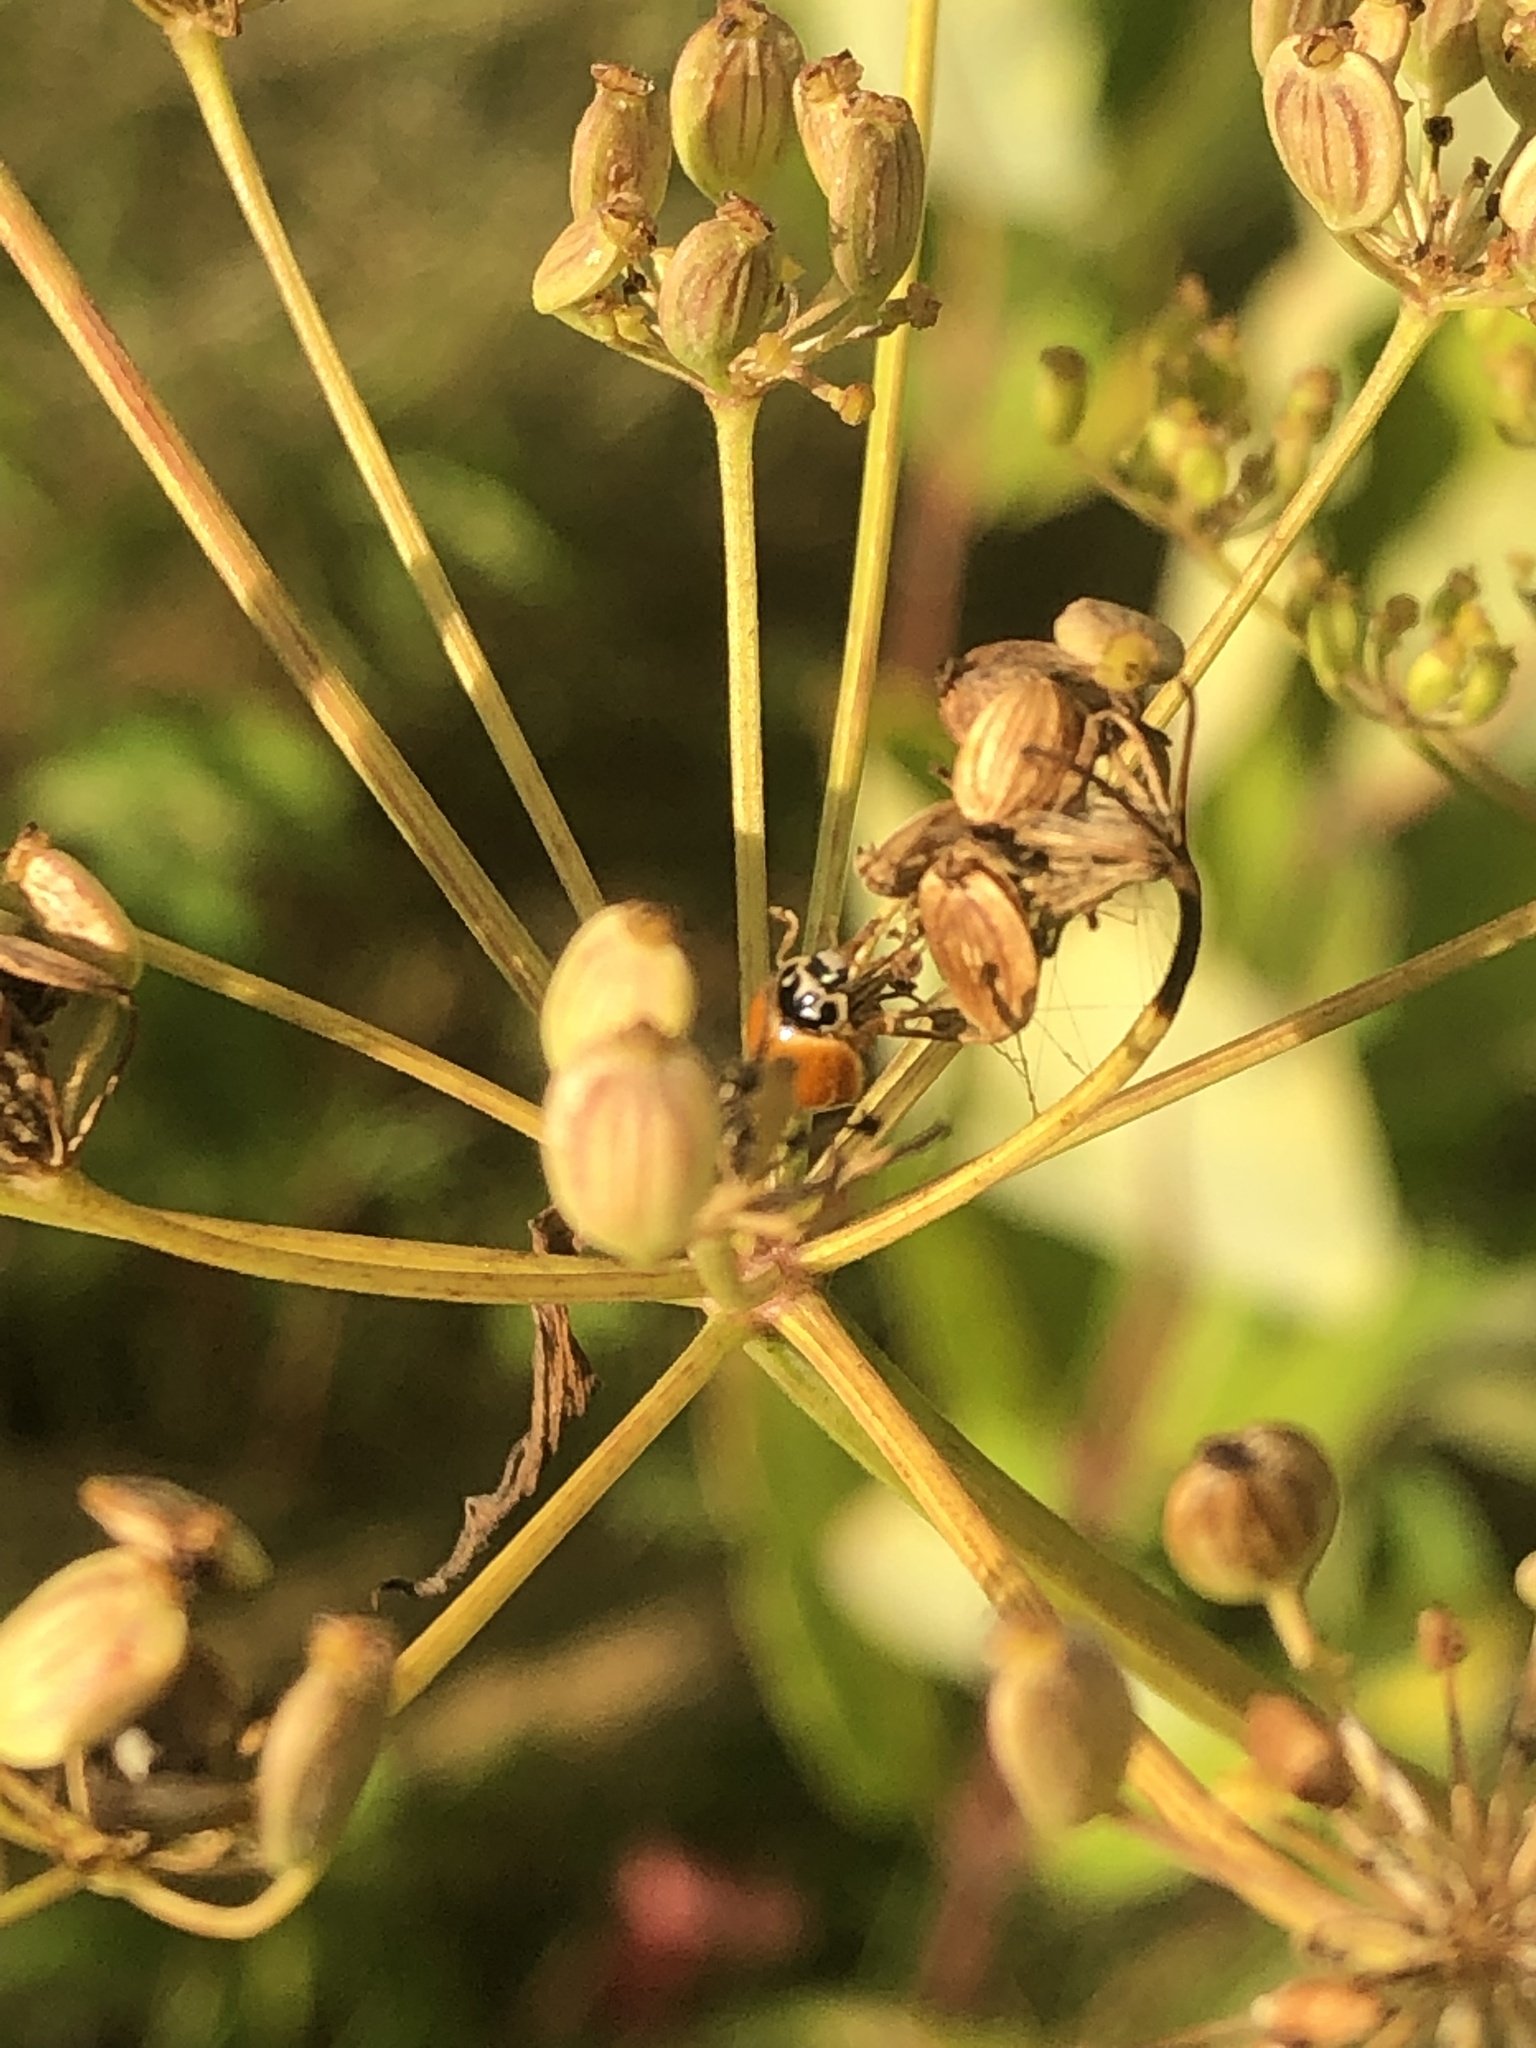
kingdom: Animalia
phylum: Arthropoda
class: Insecta
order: Coleoptera
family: Coccinellidae
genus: Cycloneda
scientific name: Cycloneda munda
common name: Polished lady beetle
